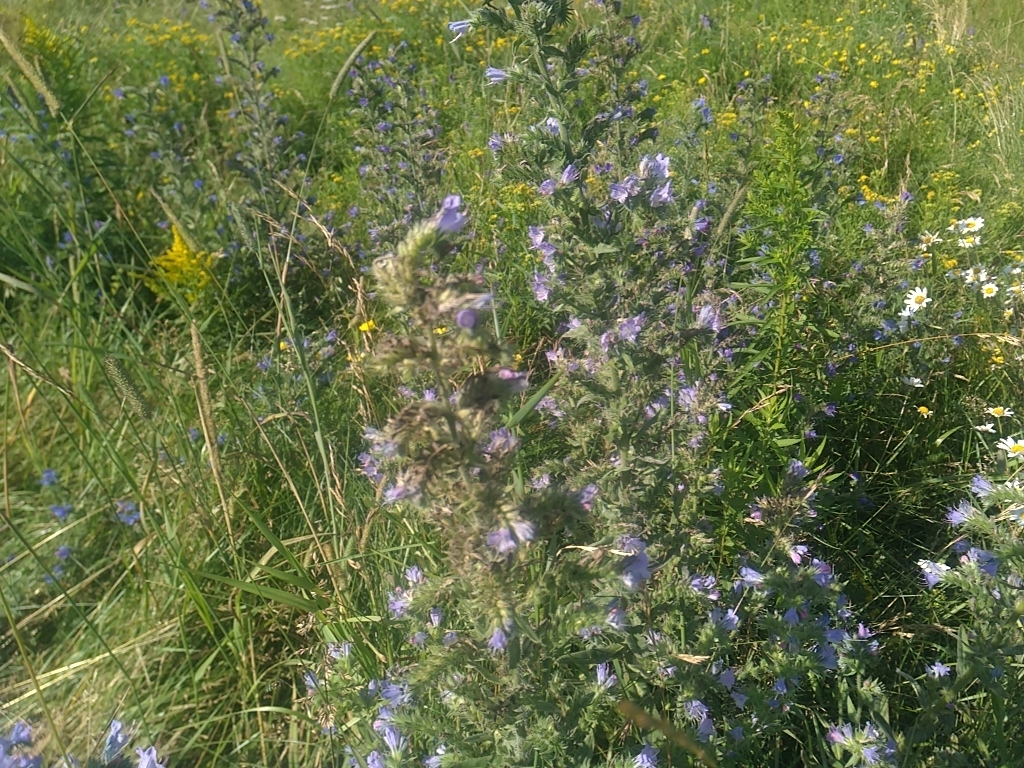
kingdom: Plantae
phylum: Tracheophyta
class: Magnoliopsida
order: Boraginales
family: Boraginaceae
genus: Echium
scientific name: Echium vulgare
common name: Common viper's bugloss
